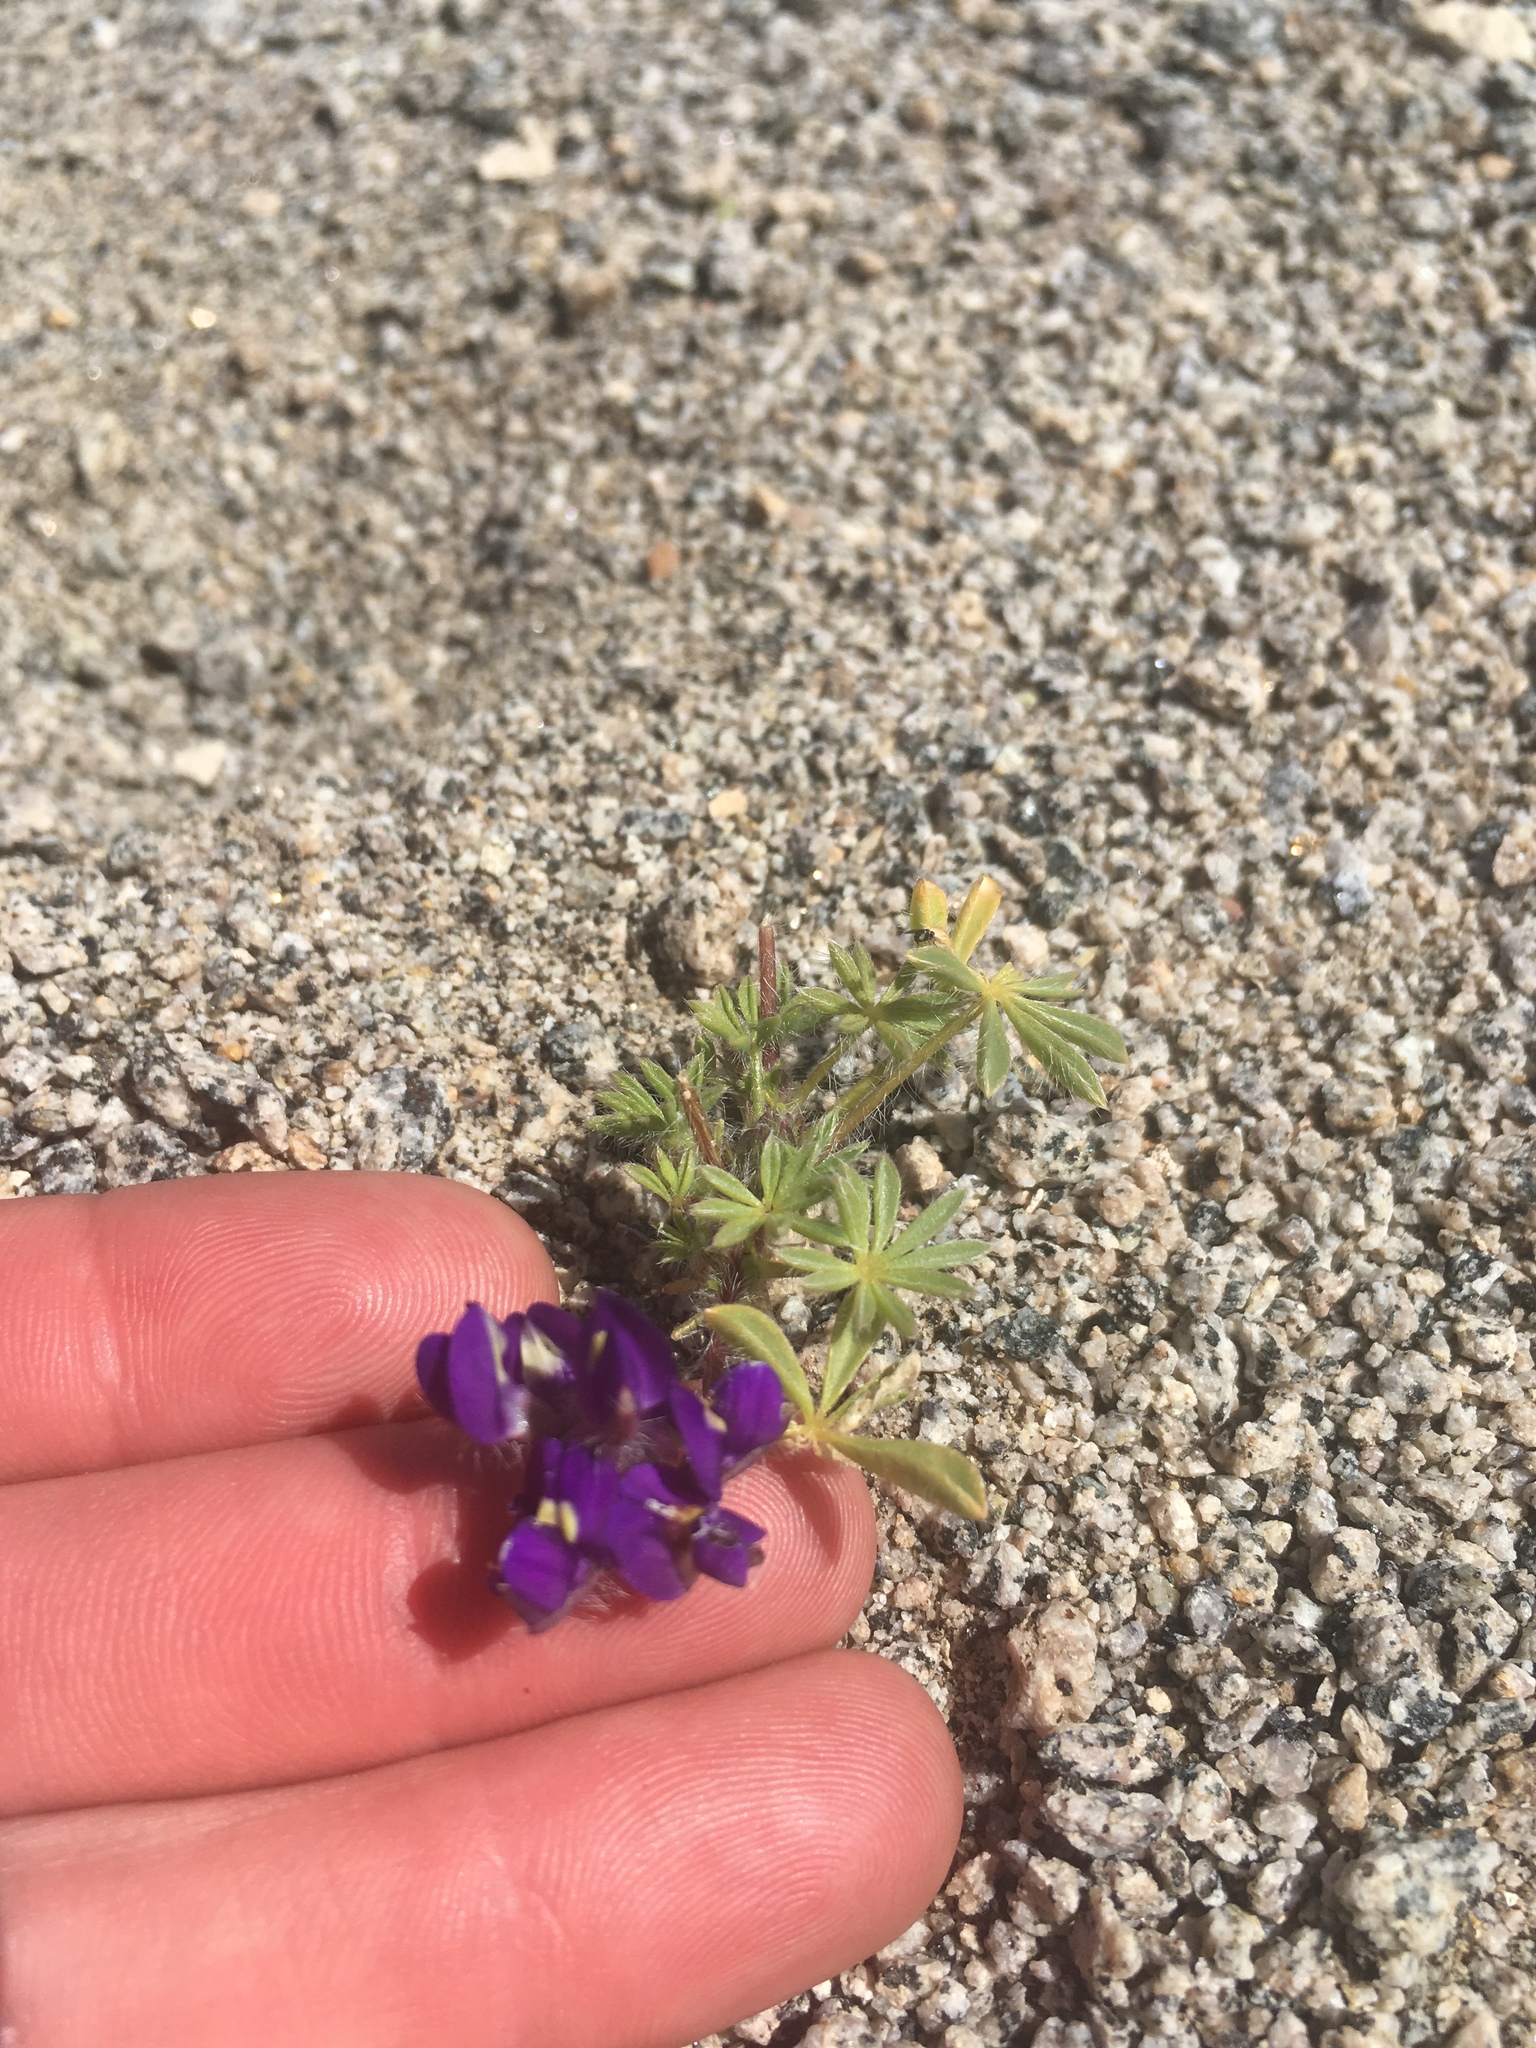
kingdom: Plantae
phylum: Tracheophyta
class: Magnoliopsida
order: Fabales
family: Fabaceae
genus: Lupinus
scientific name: Lupinus flavoculatus
